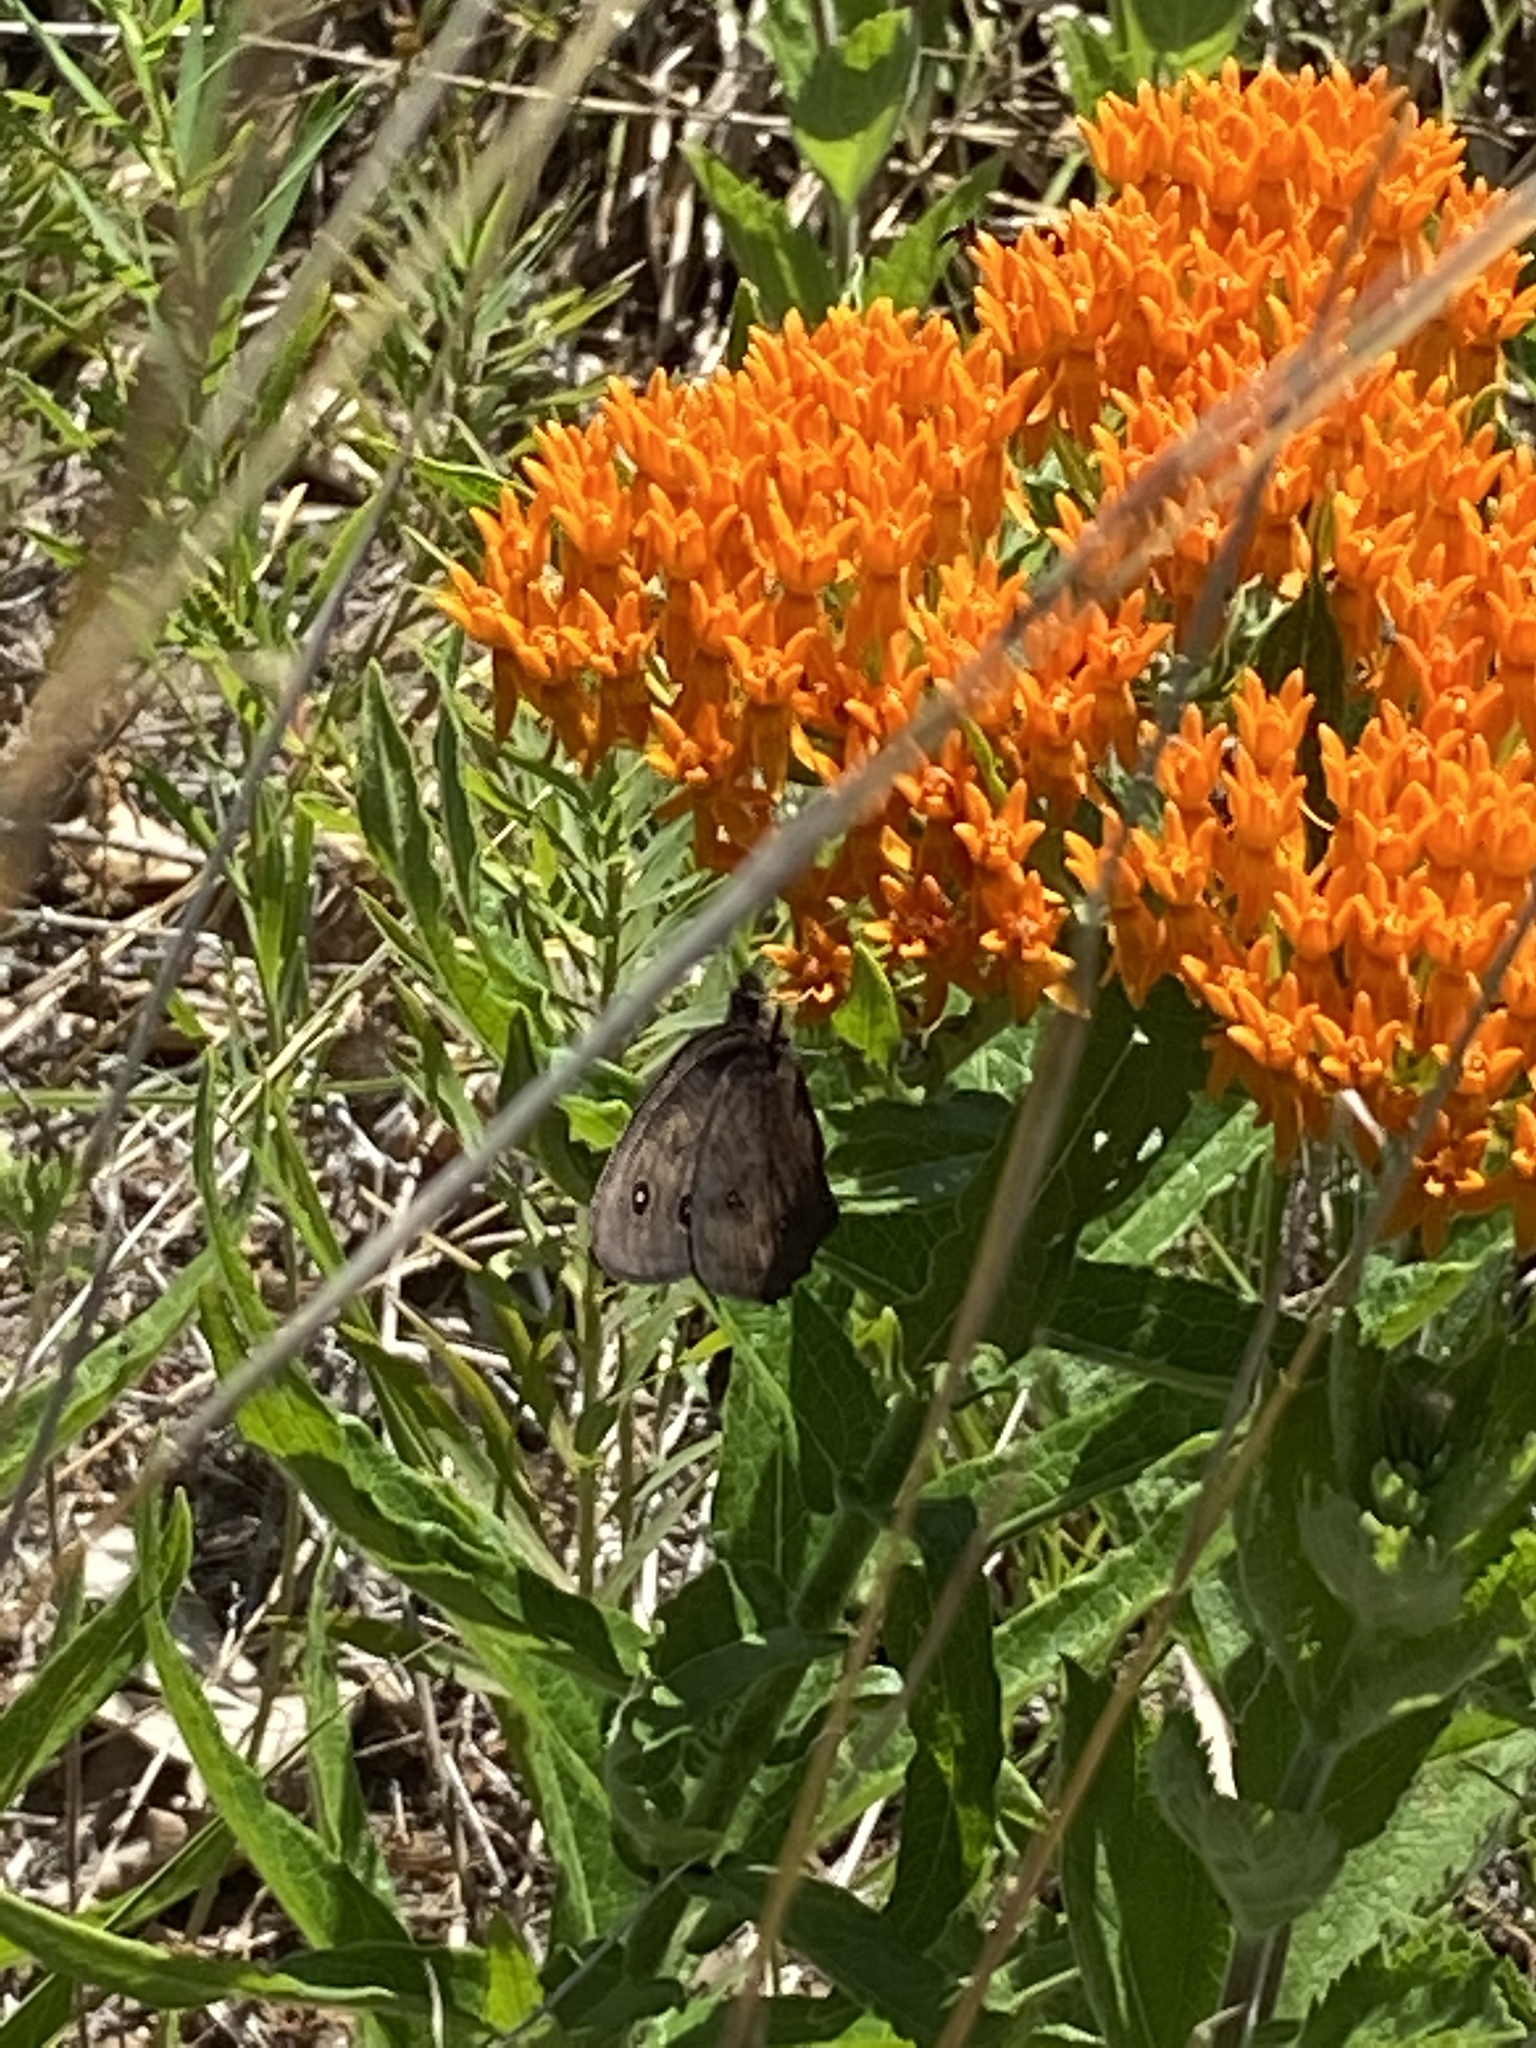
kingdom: Animalia
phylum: Arthropoda
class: Insecta
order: Lepidoptera
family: Nymphalidae
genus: Cercyonis
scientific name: Cercyonis pegala
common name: Common wood-nymph
